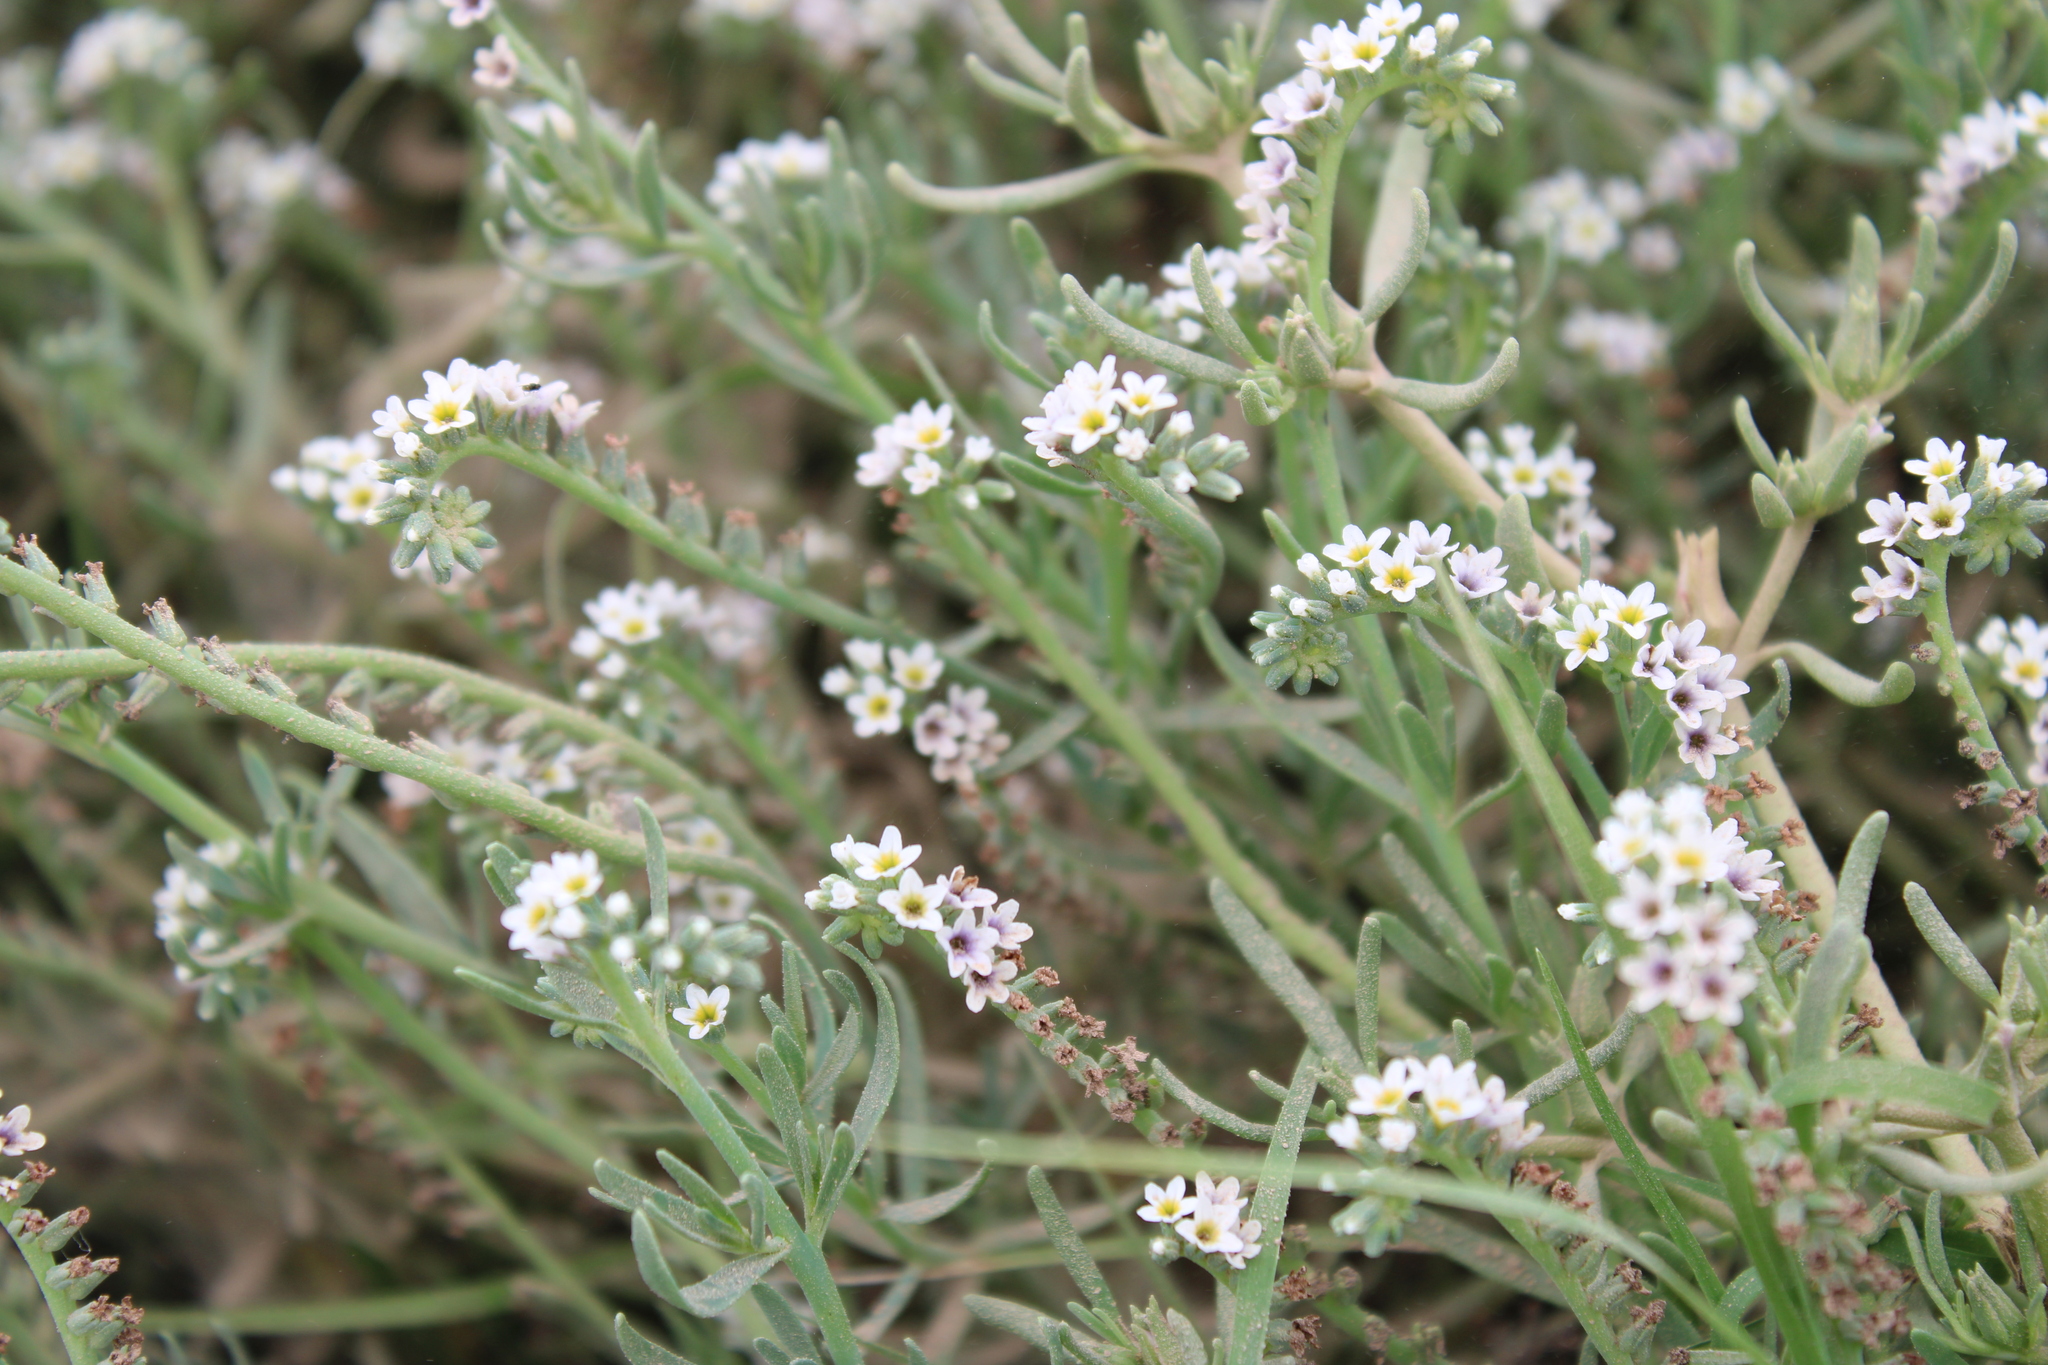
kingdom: Plantae
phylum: Tracheophyta
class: Magnoliopsida
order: Boraginales
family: Heliotropiaceae
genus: Heliotropium
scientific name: Heliotropium curassavicum
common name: Seaside heliotrope
